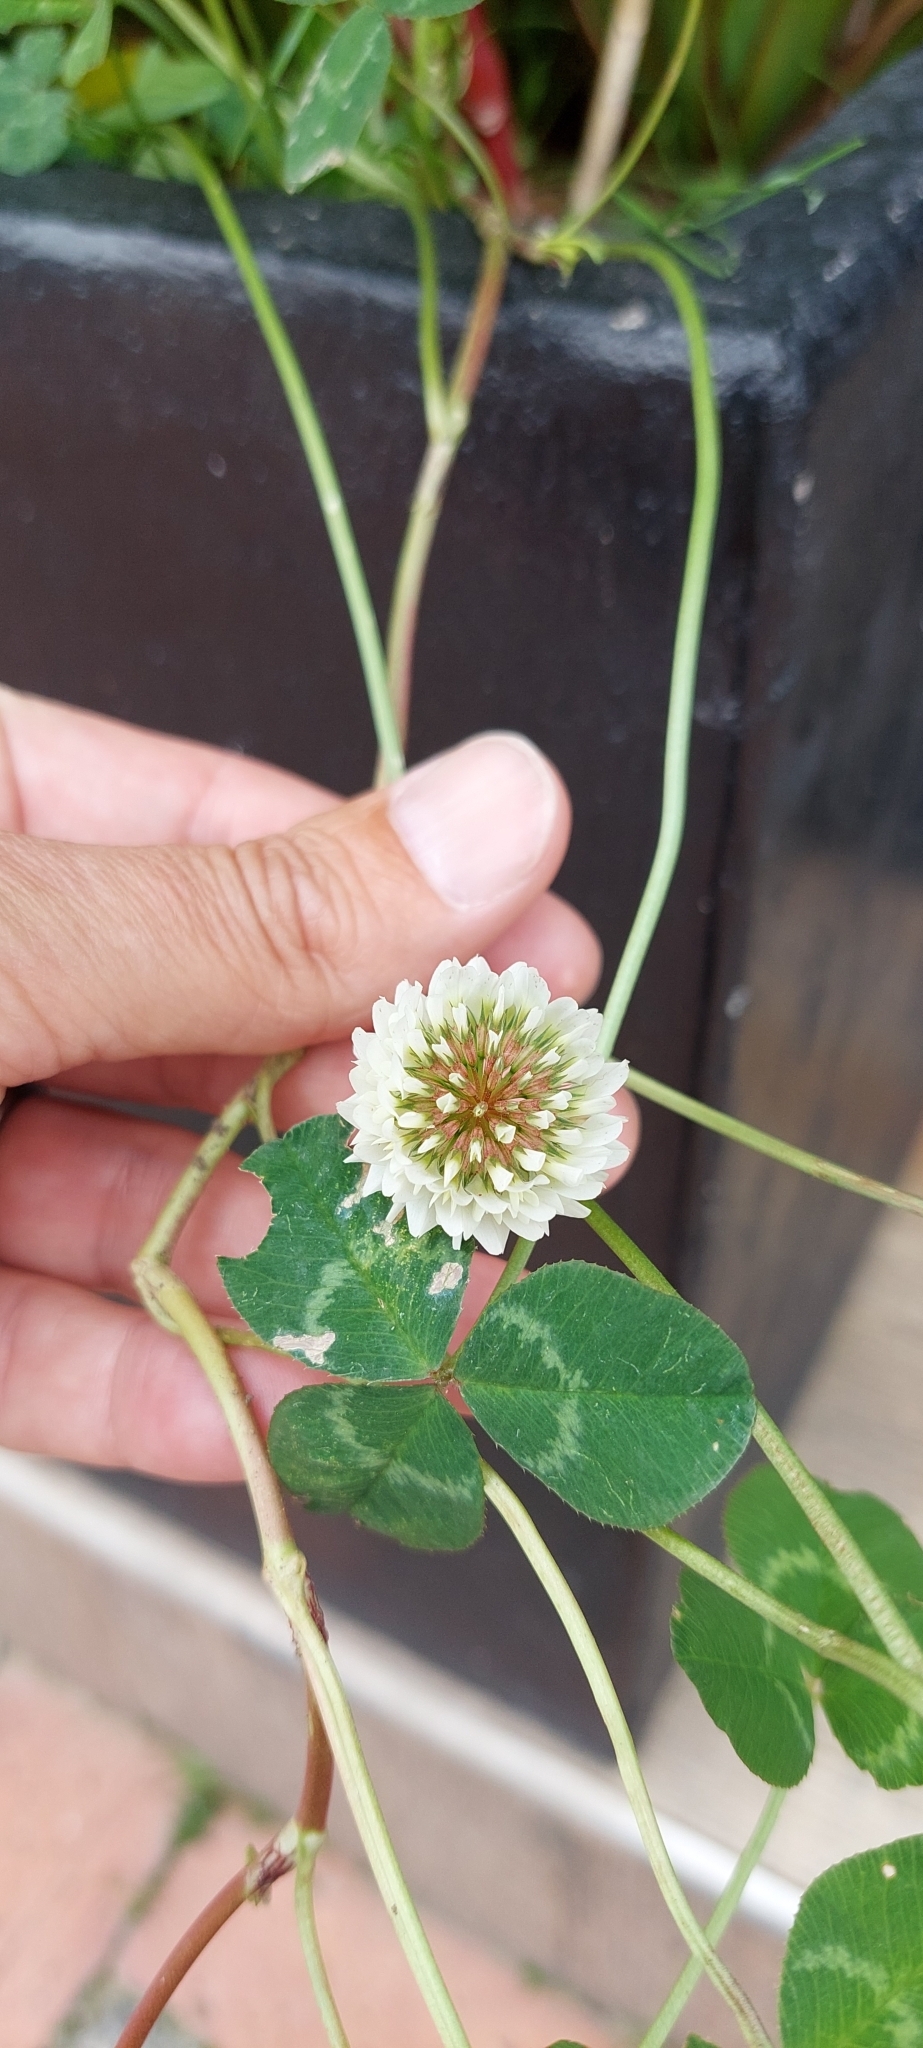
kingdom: Plantae
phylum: Tracheophyta
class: Magnoliopsida
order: Fabales
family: Fabaceae
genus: Trifolium
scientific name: Trifolium repens
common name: White clover
